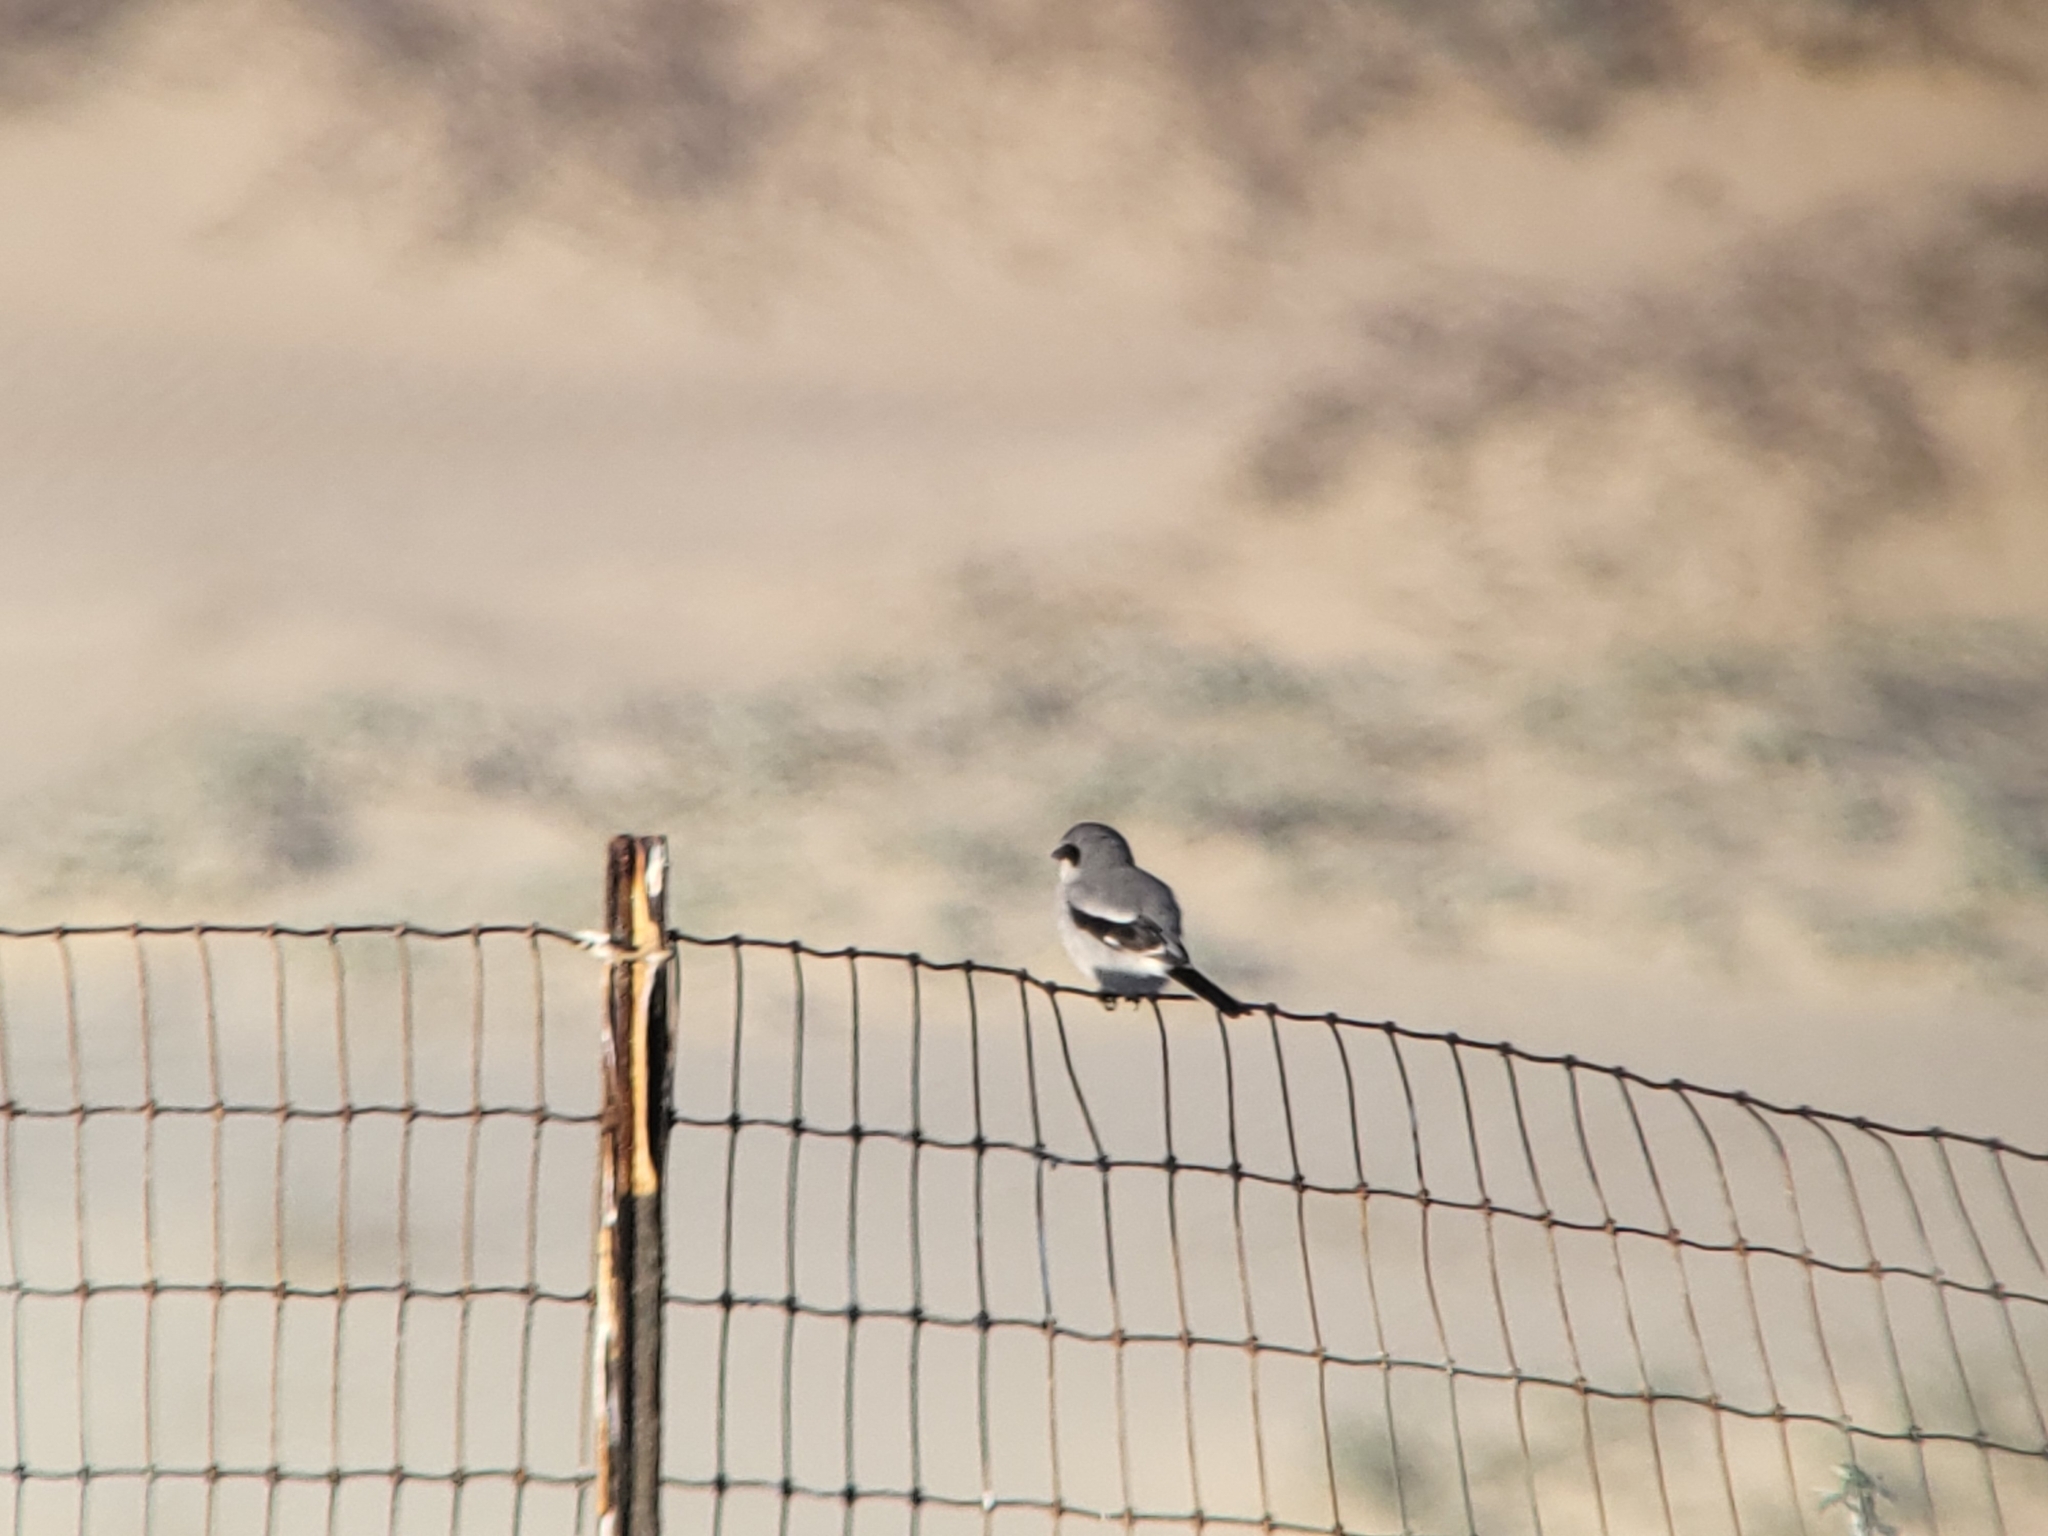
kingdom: Animalia
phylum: Chordata
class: Aves
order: Passeriformes
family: Laniidae
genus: Lanius
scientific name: Lanius ludovicianus
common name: Loggerhead shrike
